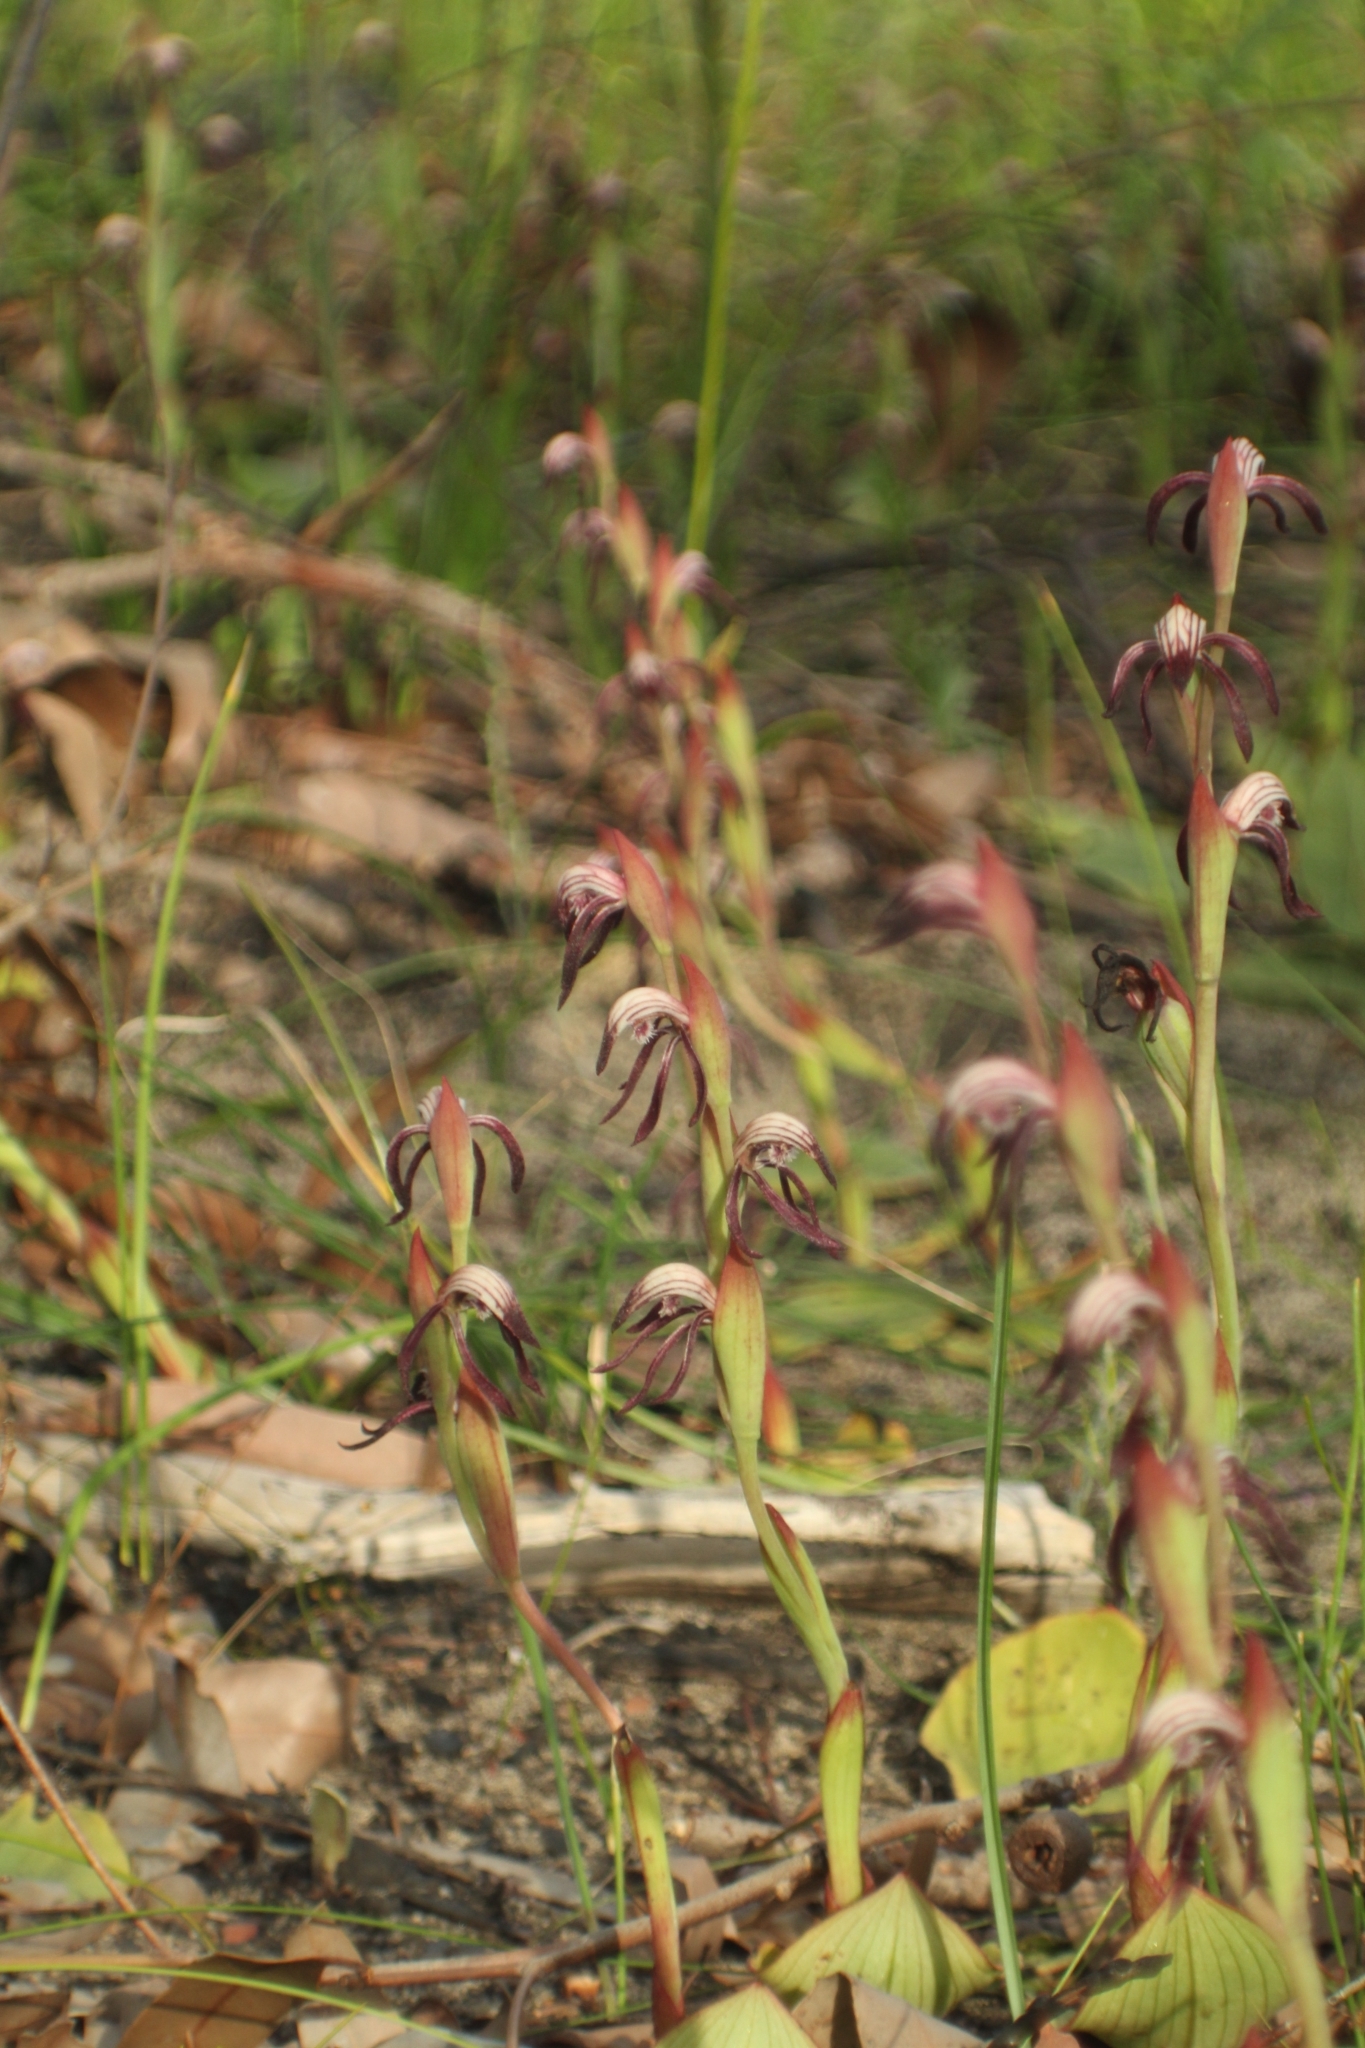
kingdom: Plantae
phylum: Tracheophyta
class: Liliopsida
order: Asparagales
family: Orchidaceae
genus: Pyrorchis
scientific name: Pyrorchis nigricans
